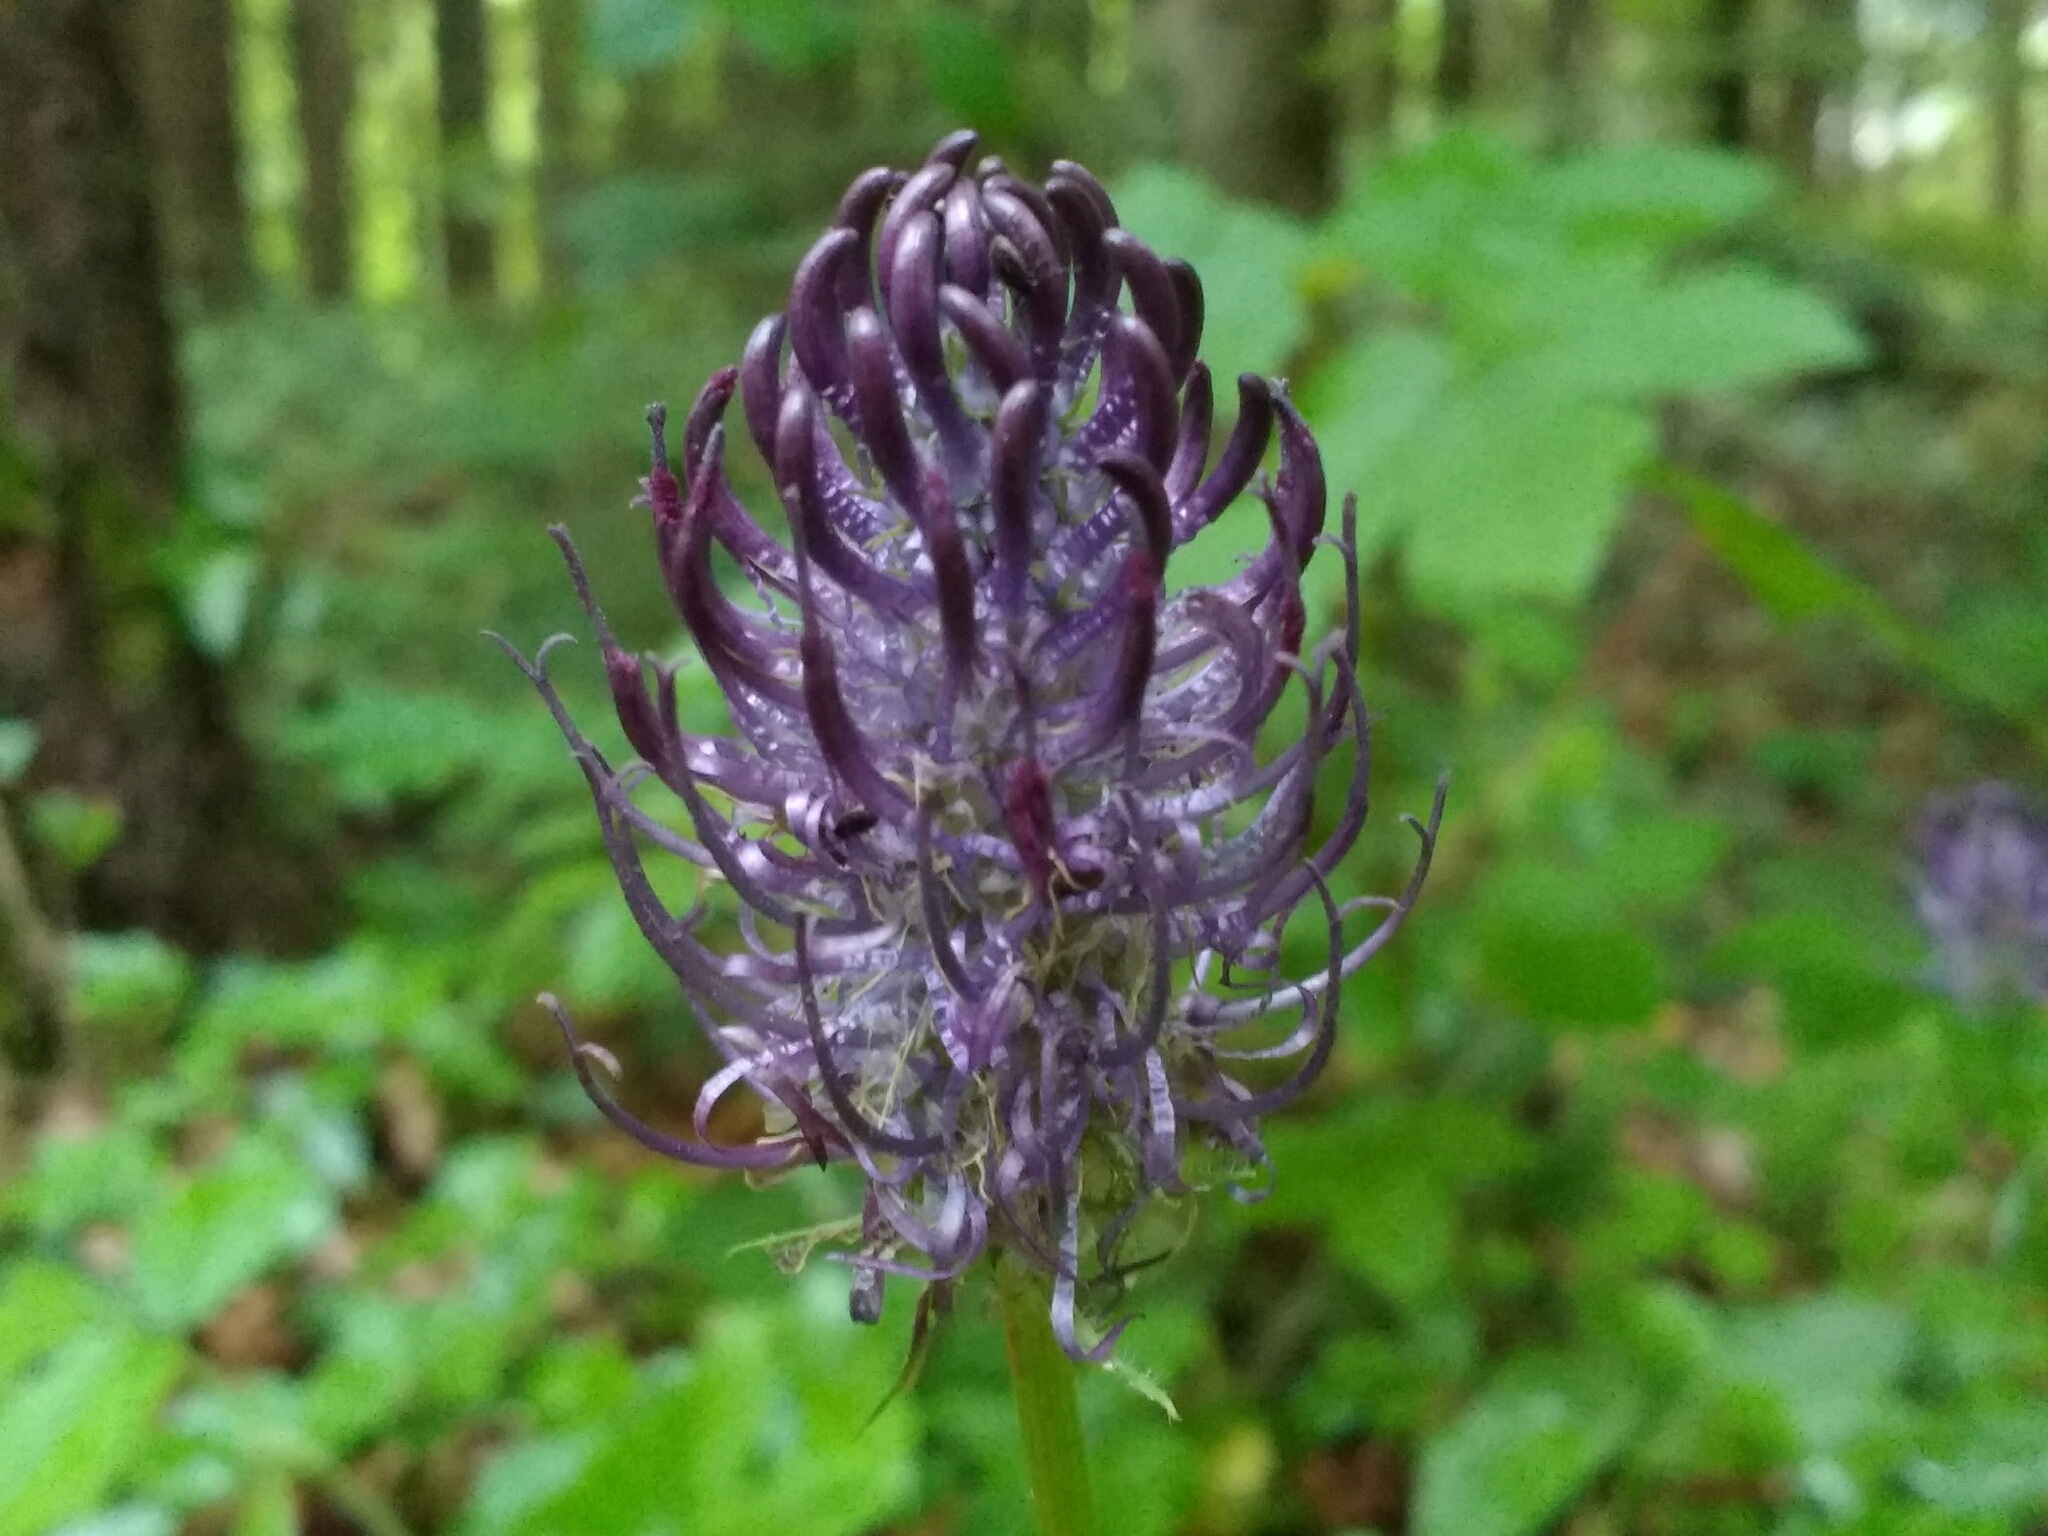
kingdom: Plantae
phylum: Tracheophyta
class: Magnoliopsida
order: Asterales
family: Campanulaceae
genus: Phyteuma
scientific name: Phyteuma nigrum
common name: Black rampion
